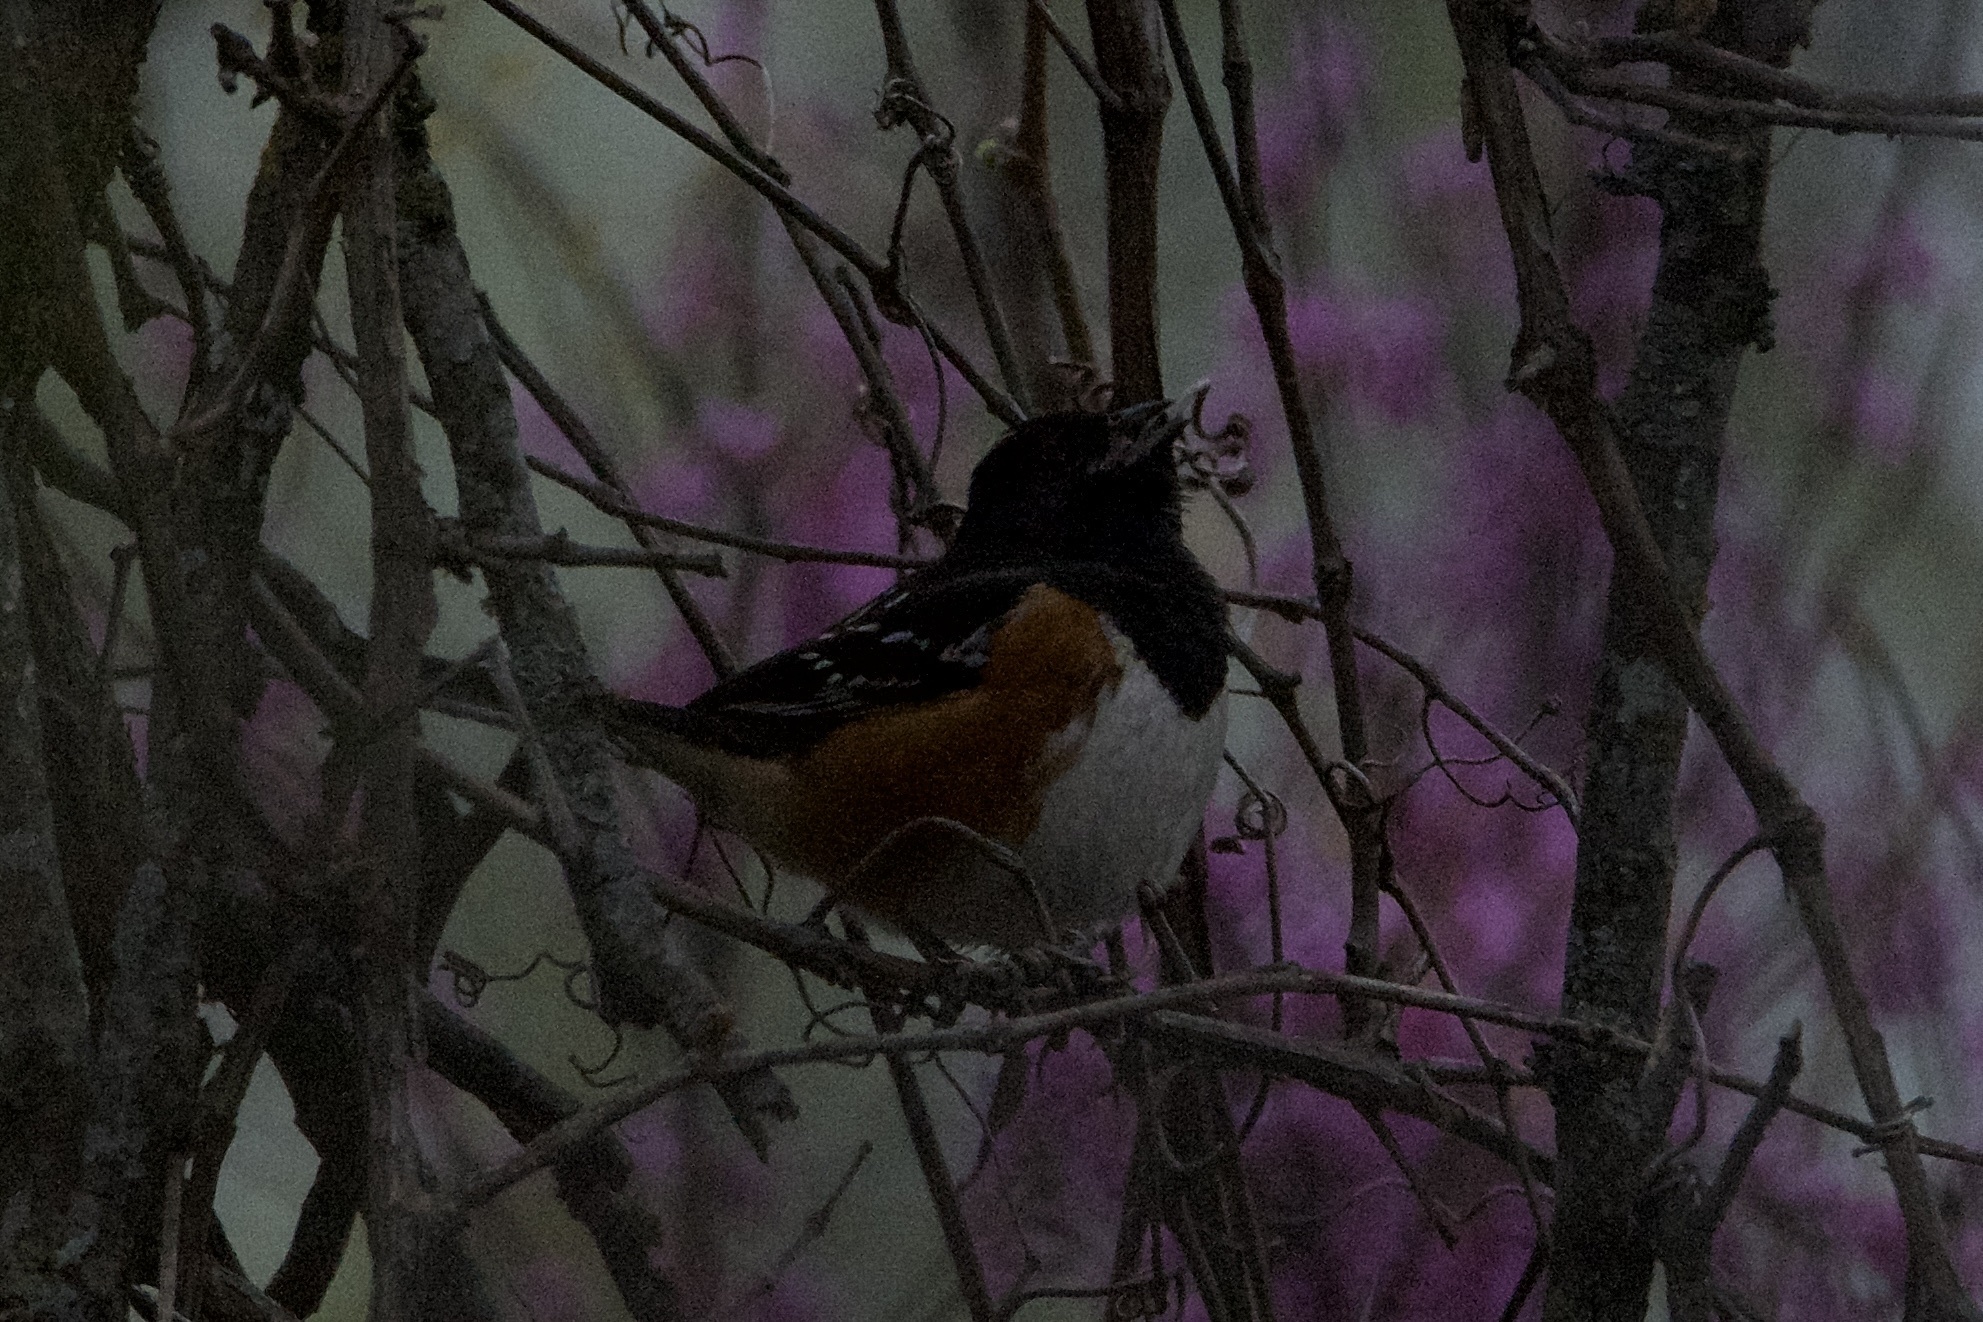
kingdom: Animalia
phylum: Chordata
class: Aves
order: Passeriformes
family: Passerellidae
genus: Pipilo
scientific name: Pipilo maculatus
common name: Spotted towhee
